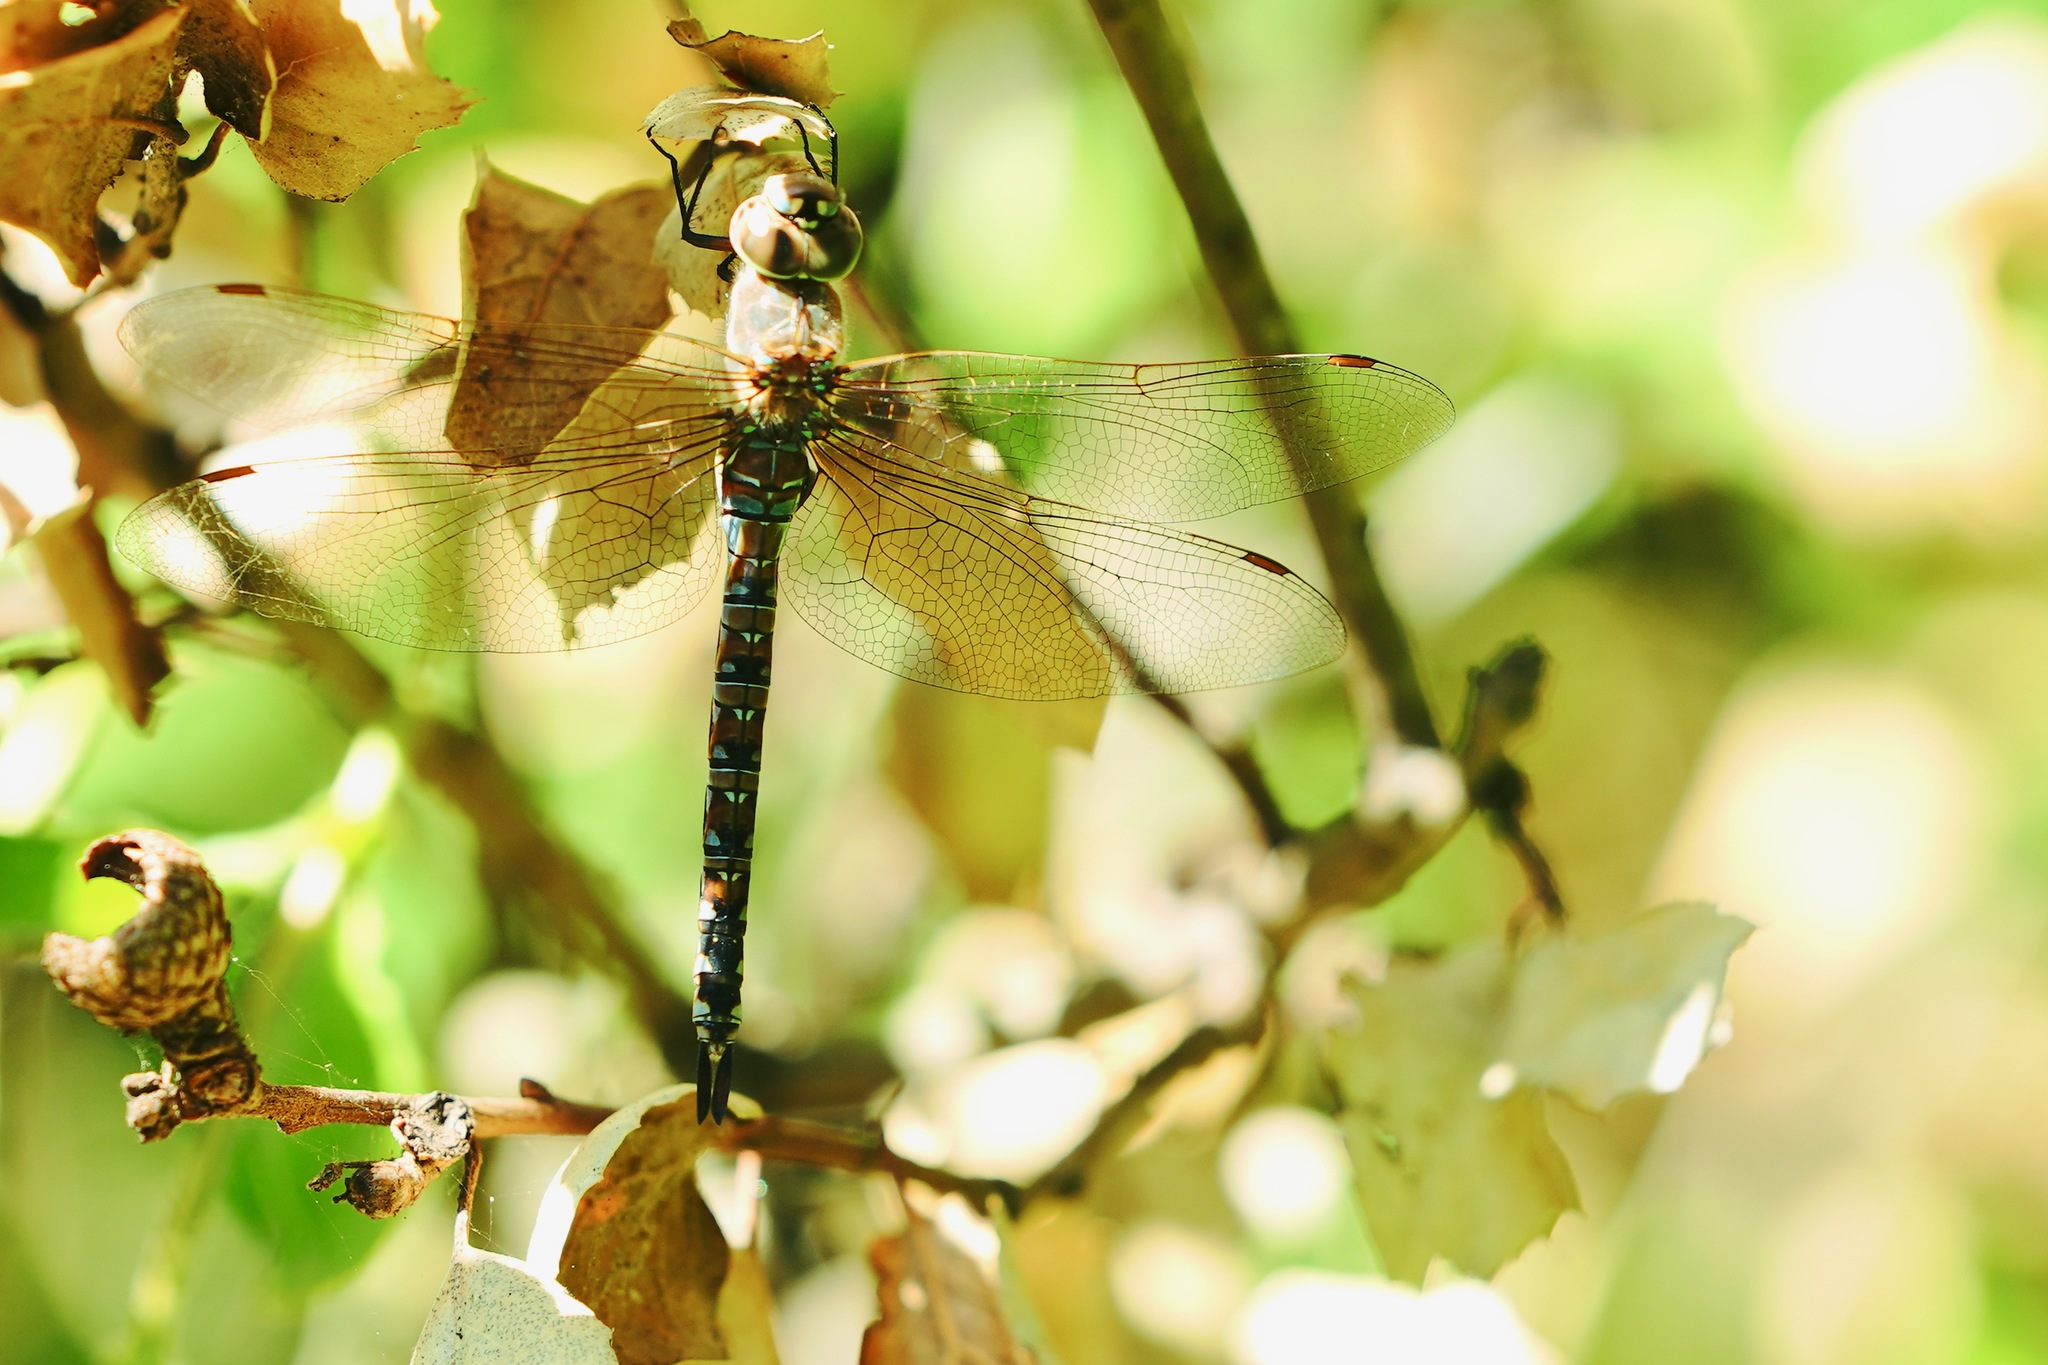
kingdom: Animalia
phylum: Arthropoda
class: Insecta
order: Odonata
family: Aeshnidae
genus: Rhionaeschna
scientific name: Rhionaeschna multicolor
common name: Blue-eyed darner
